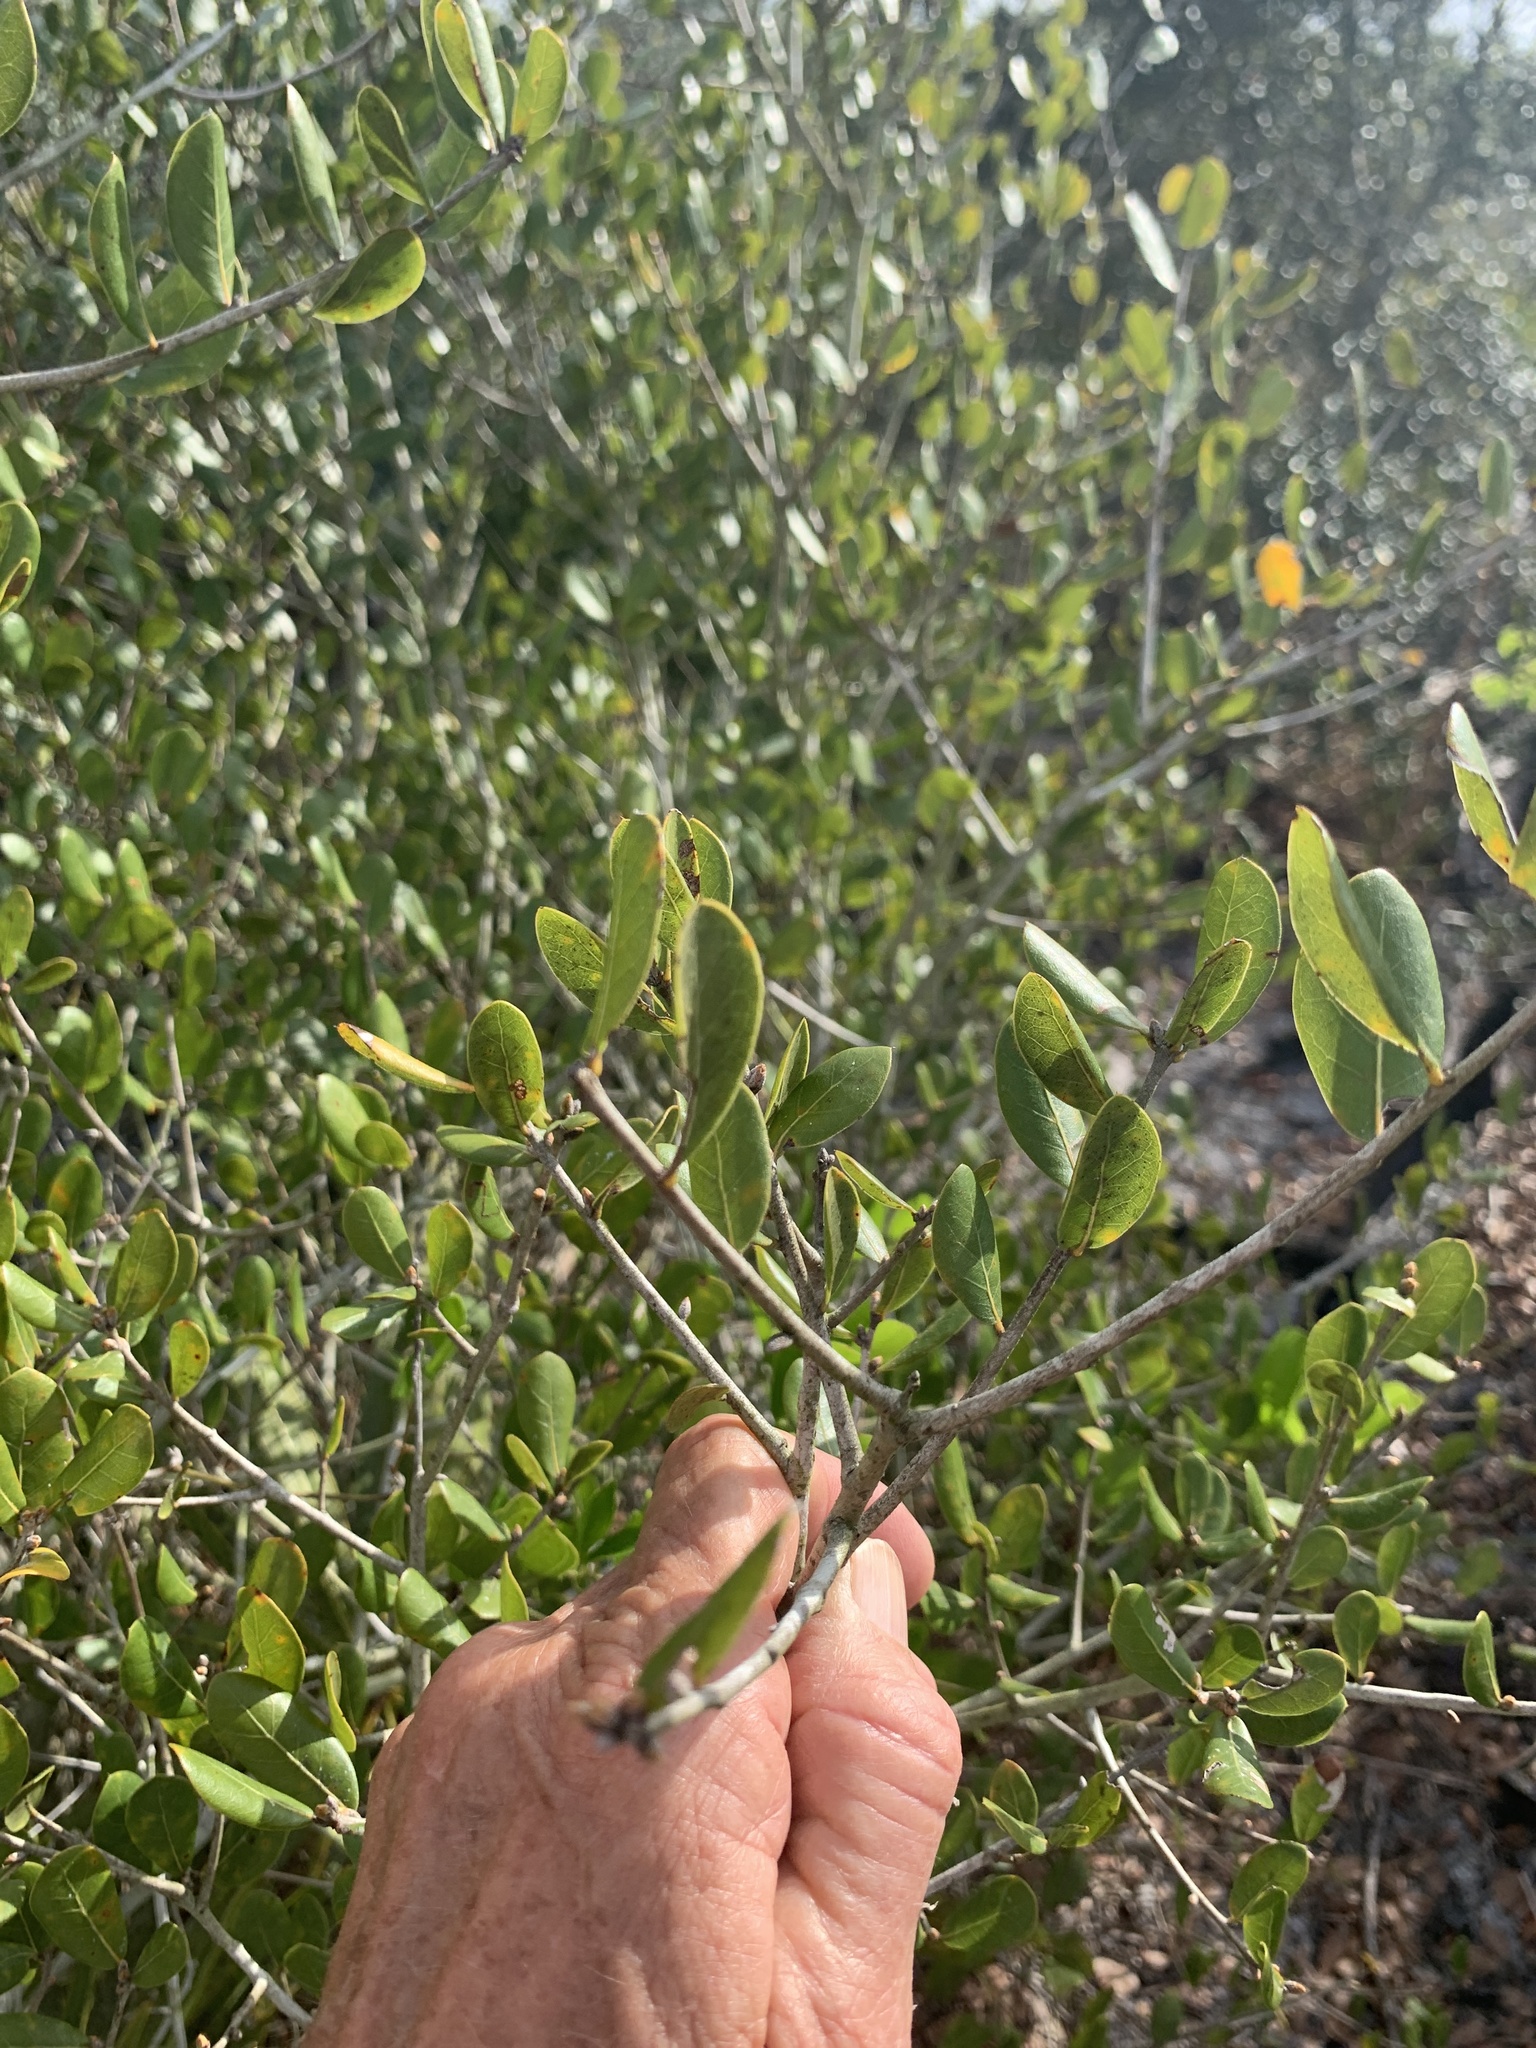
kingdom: Plantae
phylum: Tracheophyta
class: Magnoliopsida
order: Fagales
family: Fagaceae
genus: Quercus
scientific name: Quercus myrtifolia
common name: Myrtle oak
